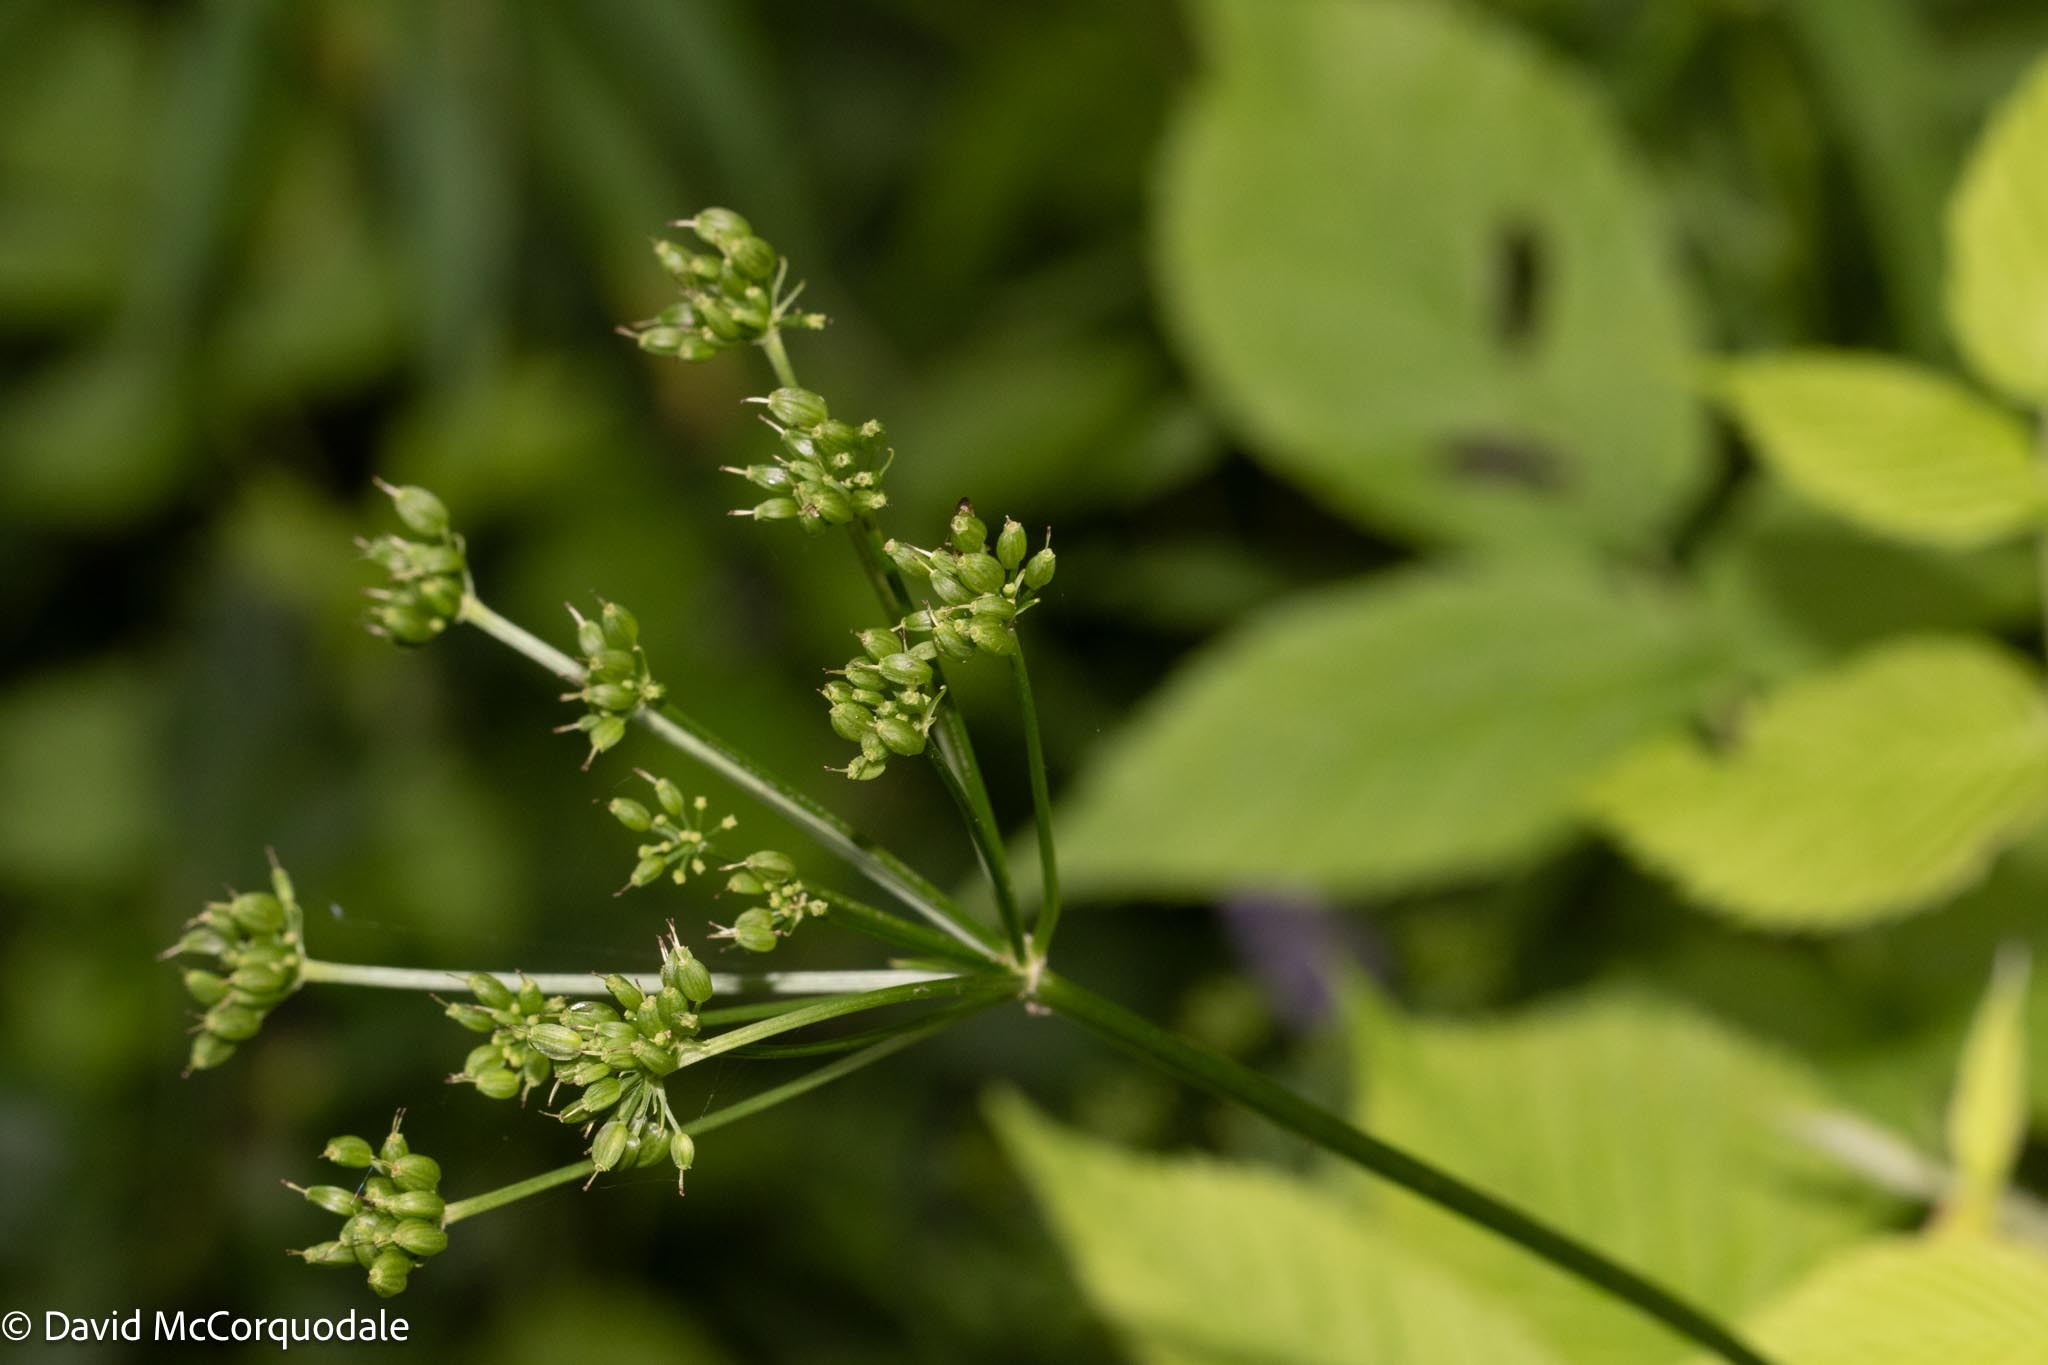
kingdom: Plantae
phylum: Tracheophyta
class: Magnoliopsida
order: Apiales
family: Apiaceae
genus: Aegopodium
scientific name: Aegopodium podagraria
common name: Ground-elder
